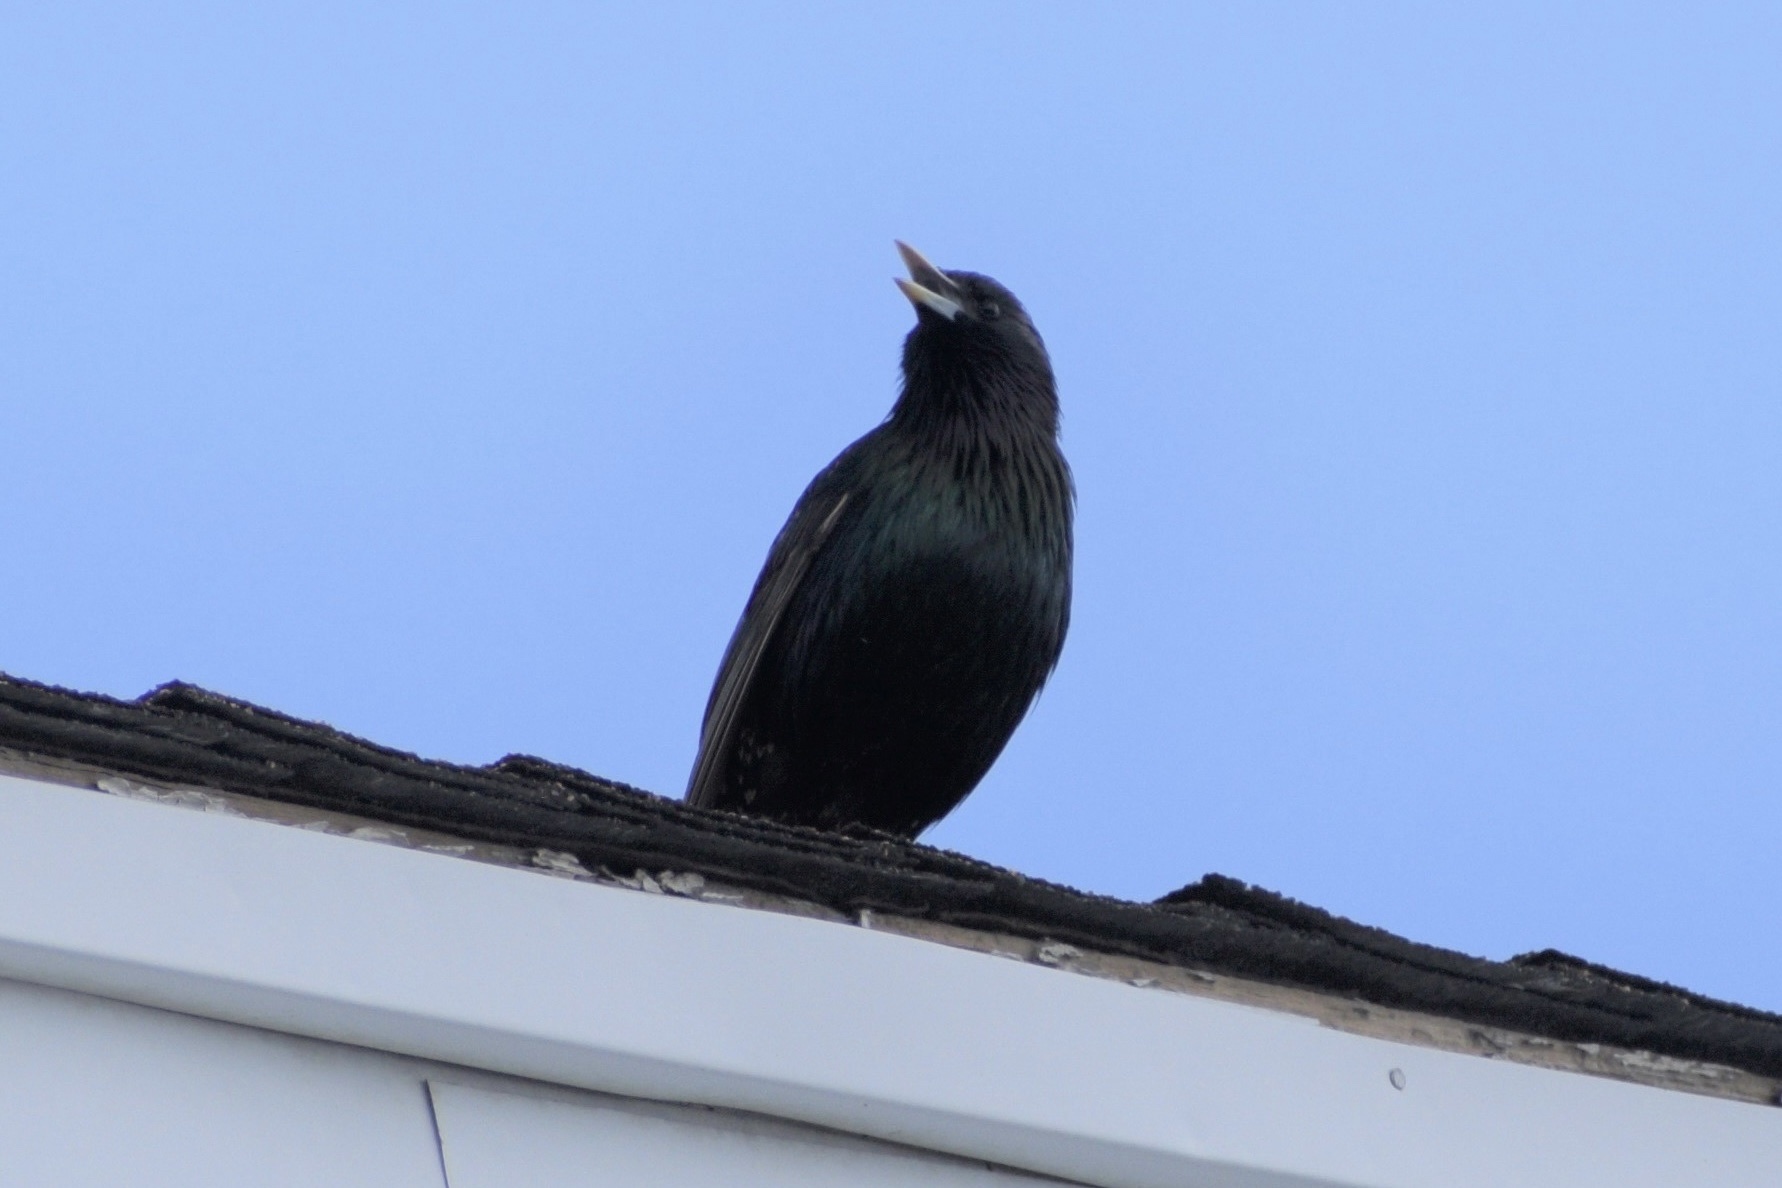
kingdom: Animalia
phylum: Chordata
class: Aves
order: Passeriformes
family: Sturnidae
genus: Sturnus
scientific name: Sturnus vulgaris
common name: Common starling
